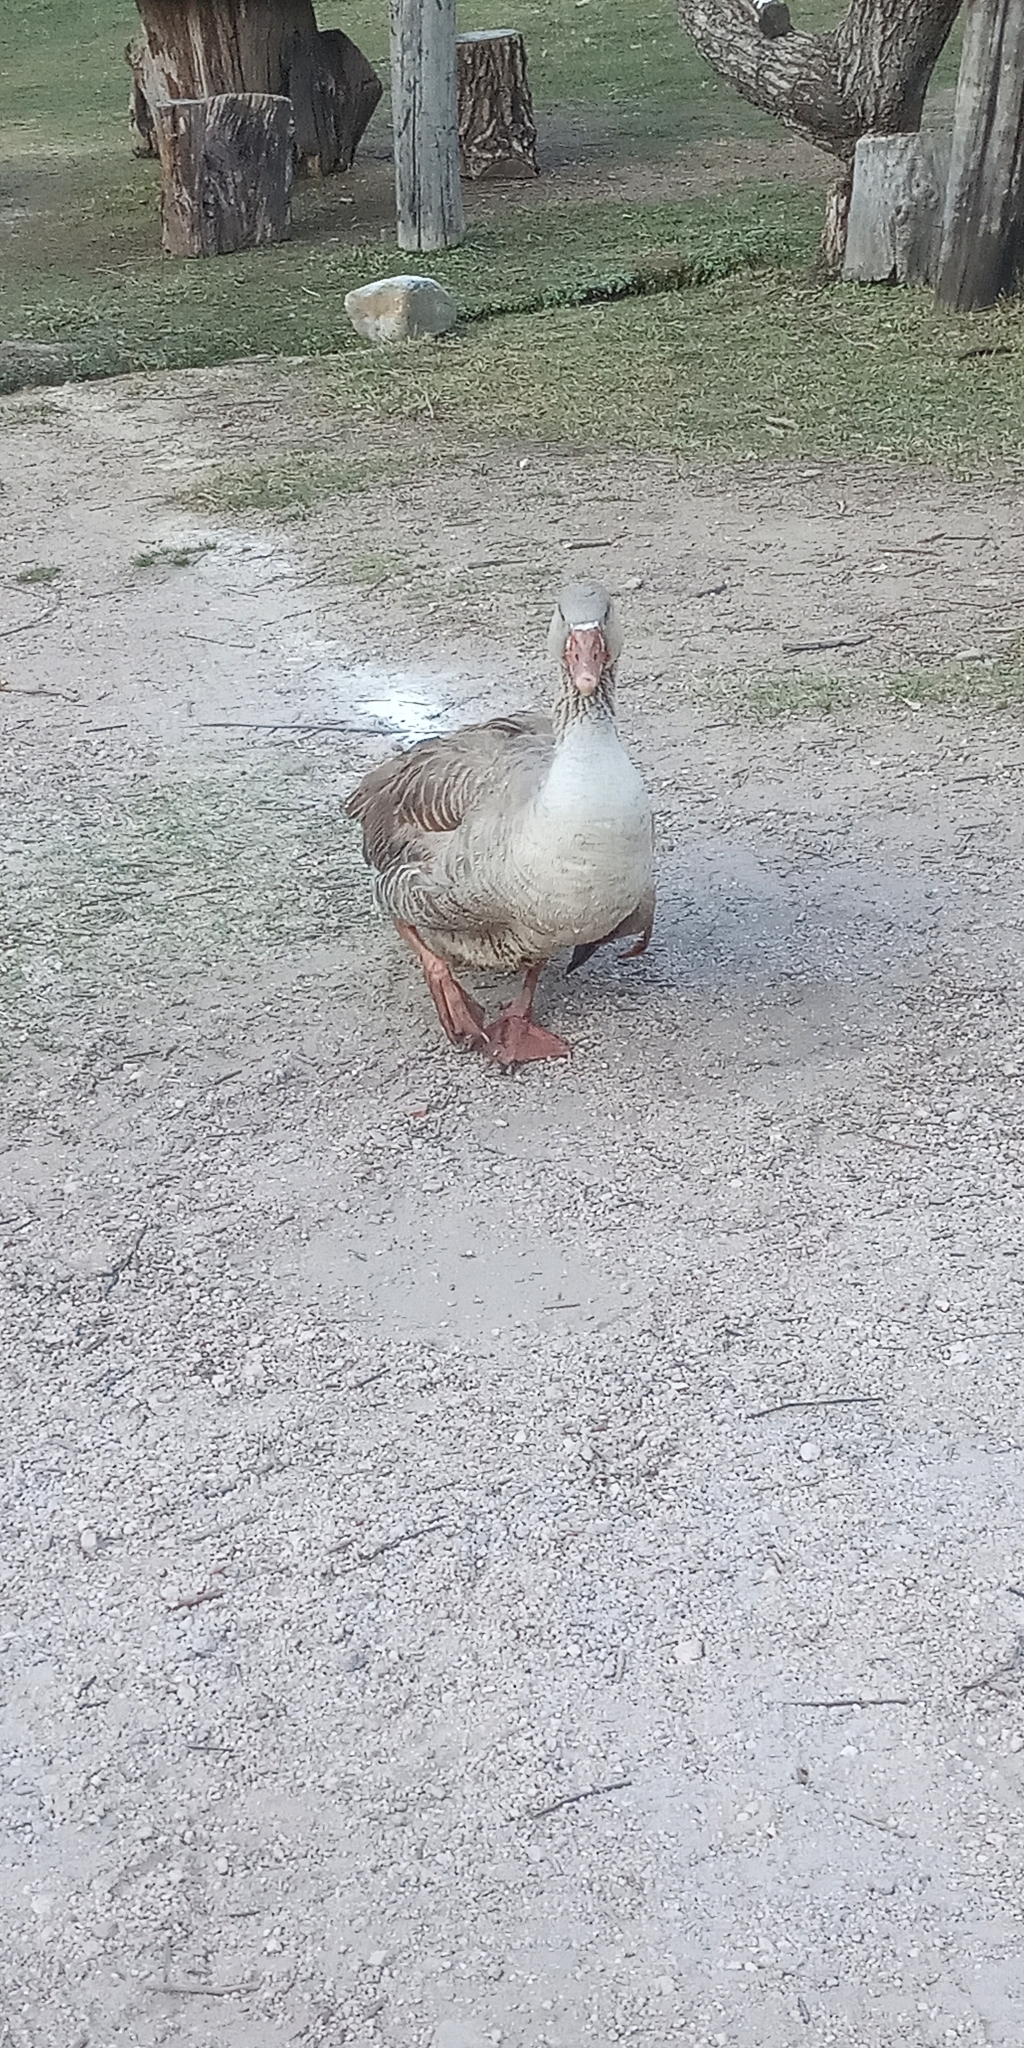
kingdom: Animalia
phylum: Chordata
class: Aves
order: Anseriformes
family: Anatidae
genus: Anser
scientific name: Anser anser
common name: Greylag goose
